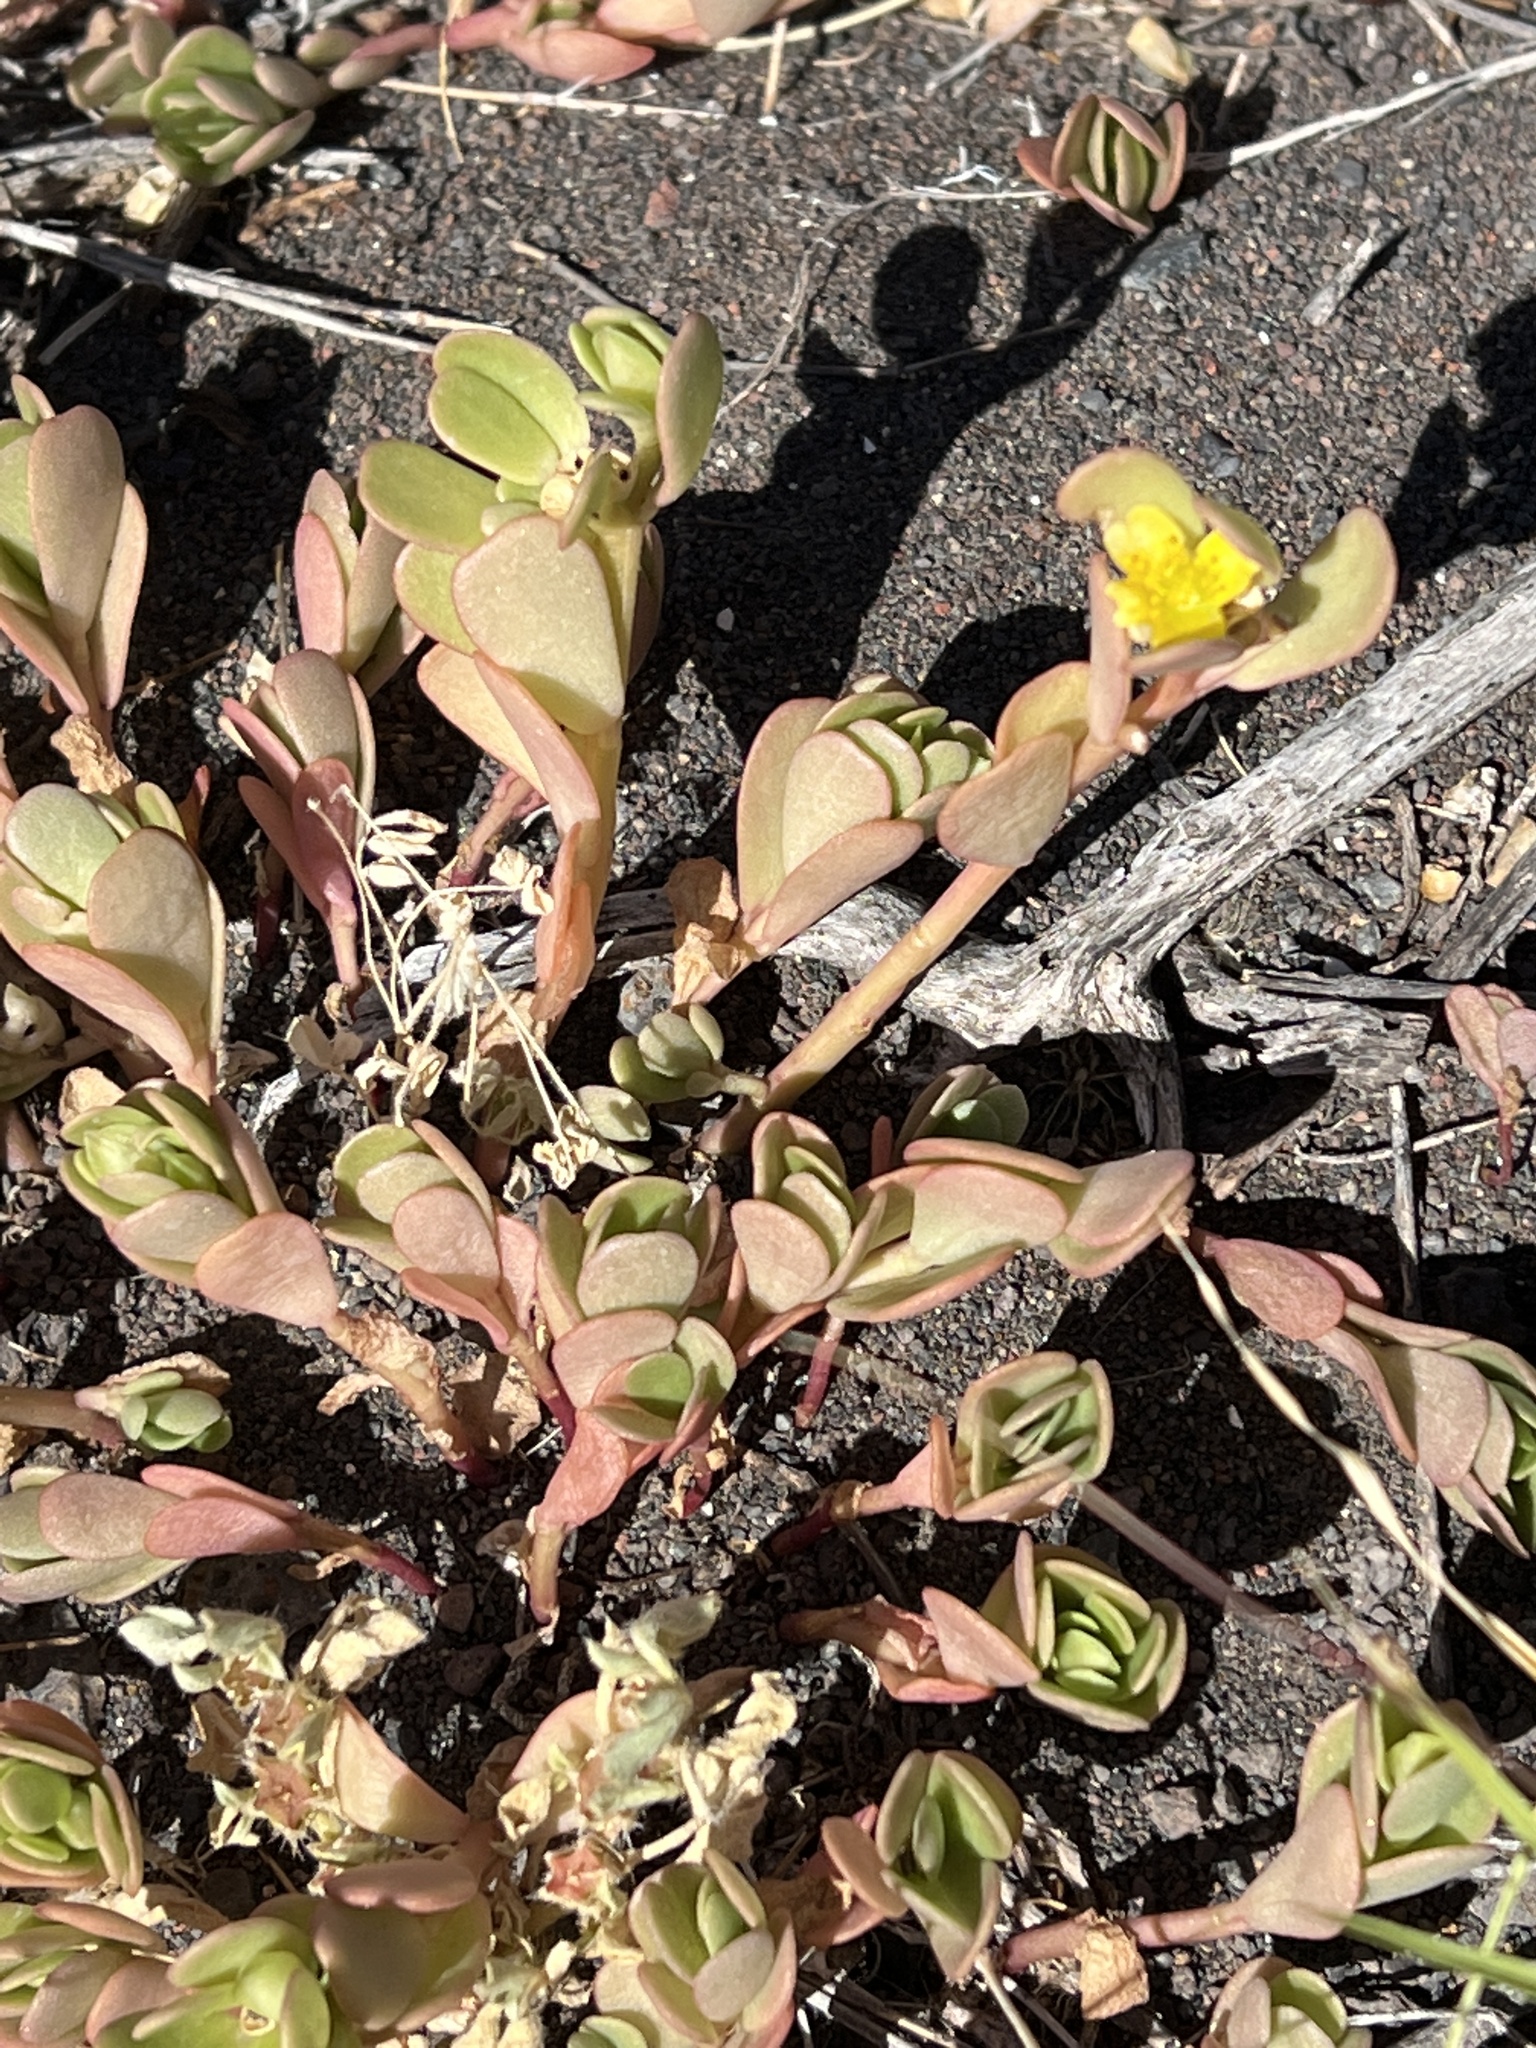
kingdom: Plantae
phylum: Tracheophyta
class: Magnoliopsida
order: Caryophyllales
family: Portulacaceae
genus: Portulaca
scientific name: Portulaca oleracea
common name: Common purslane
